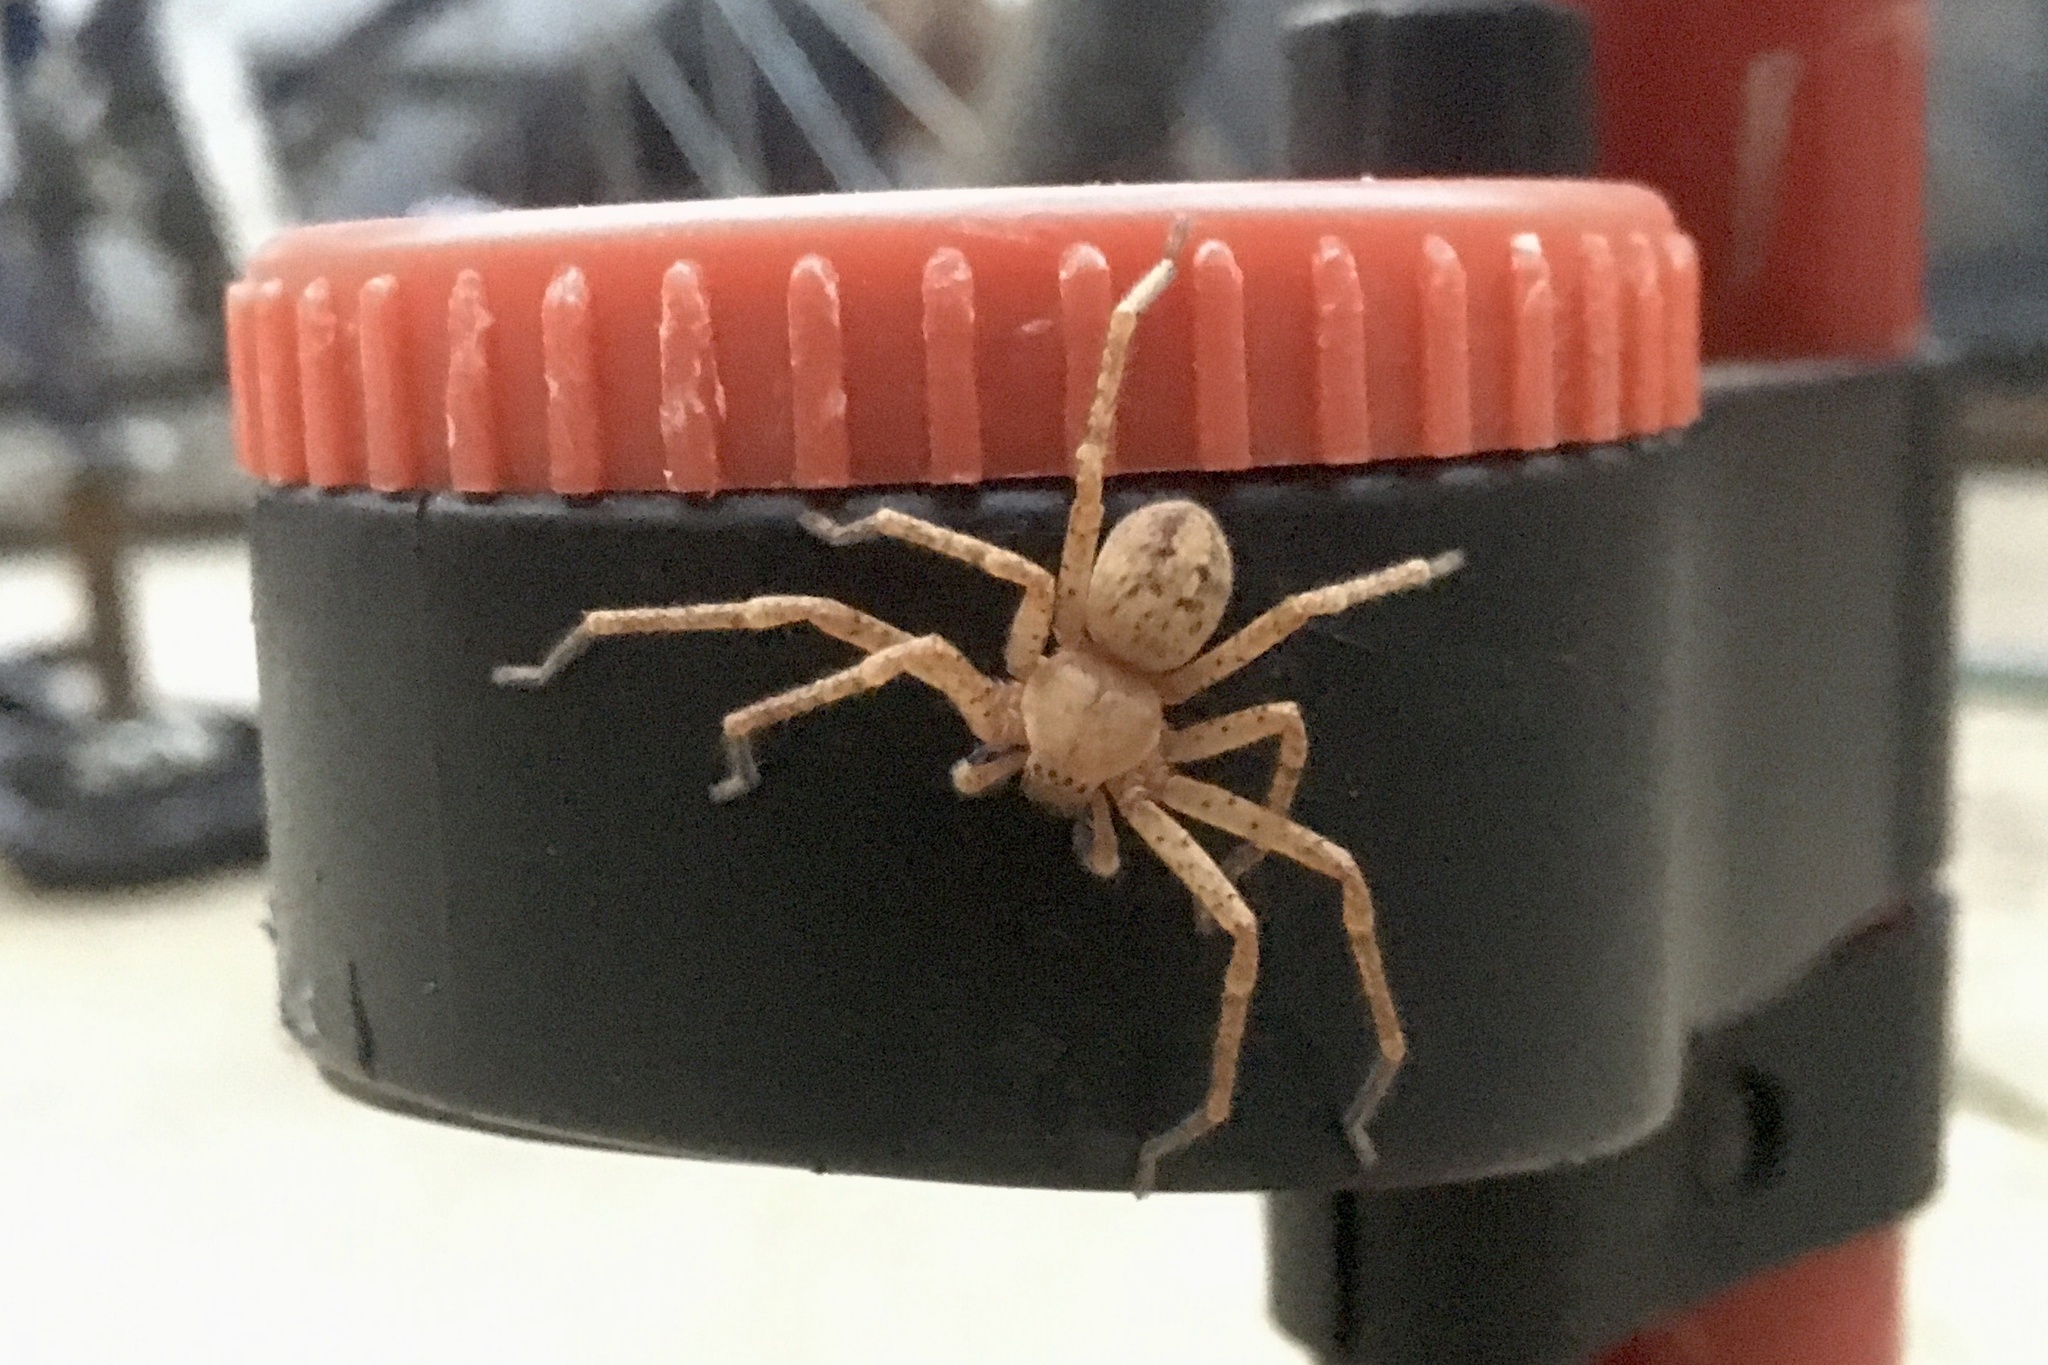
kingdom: Animalia
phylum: Arthropoda
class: Arachnida
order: Araneae
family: Sparassidae
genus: Olios
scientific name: Olios argelasius
